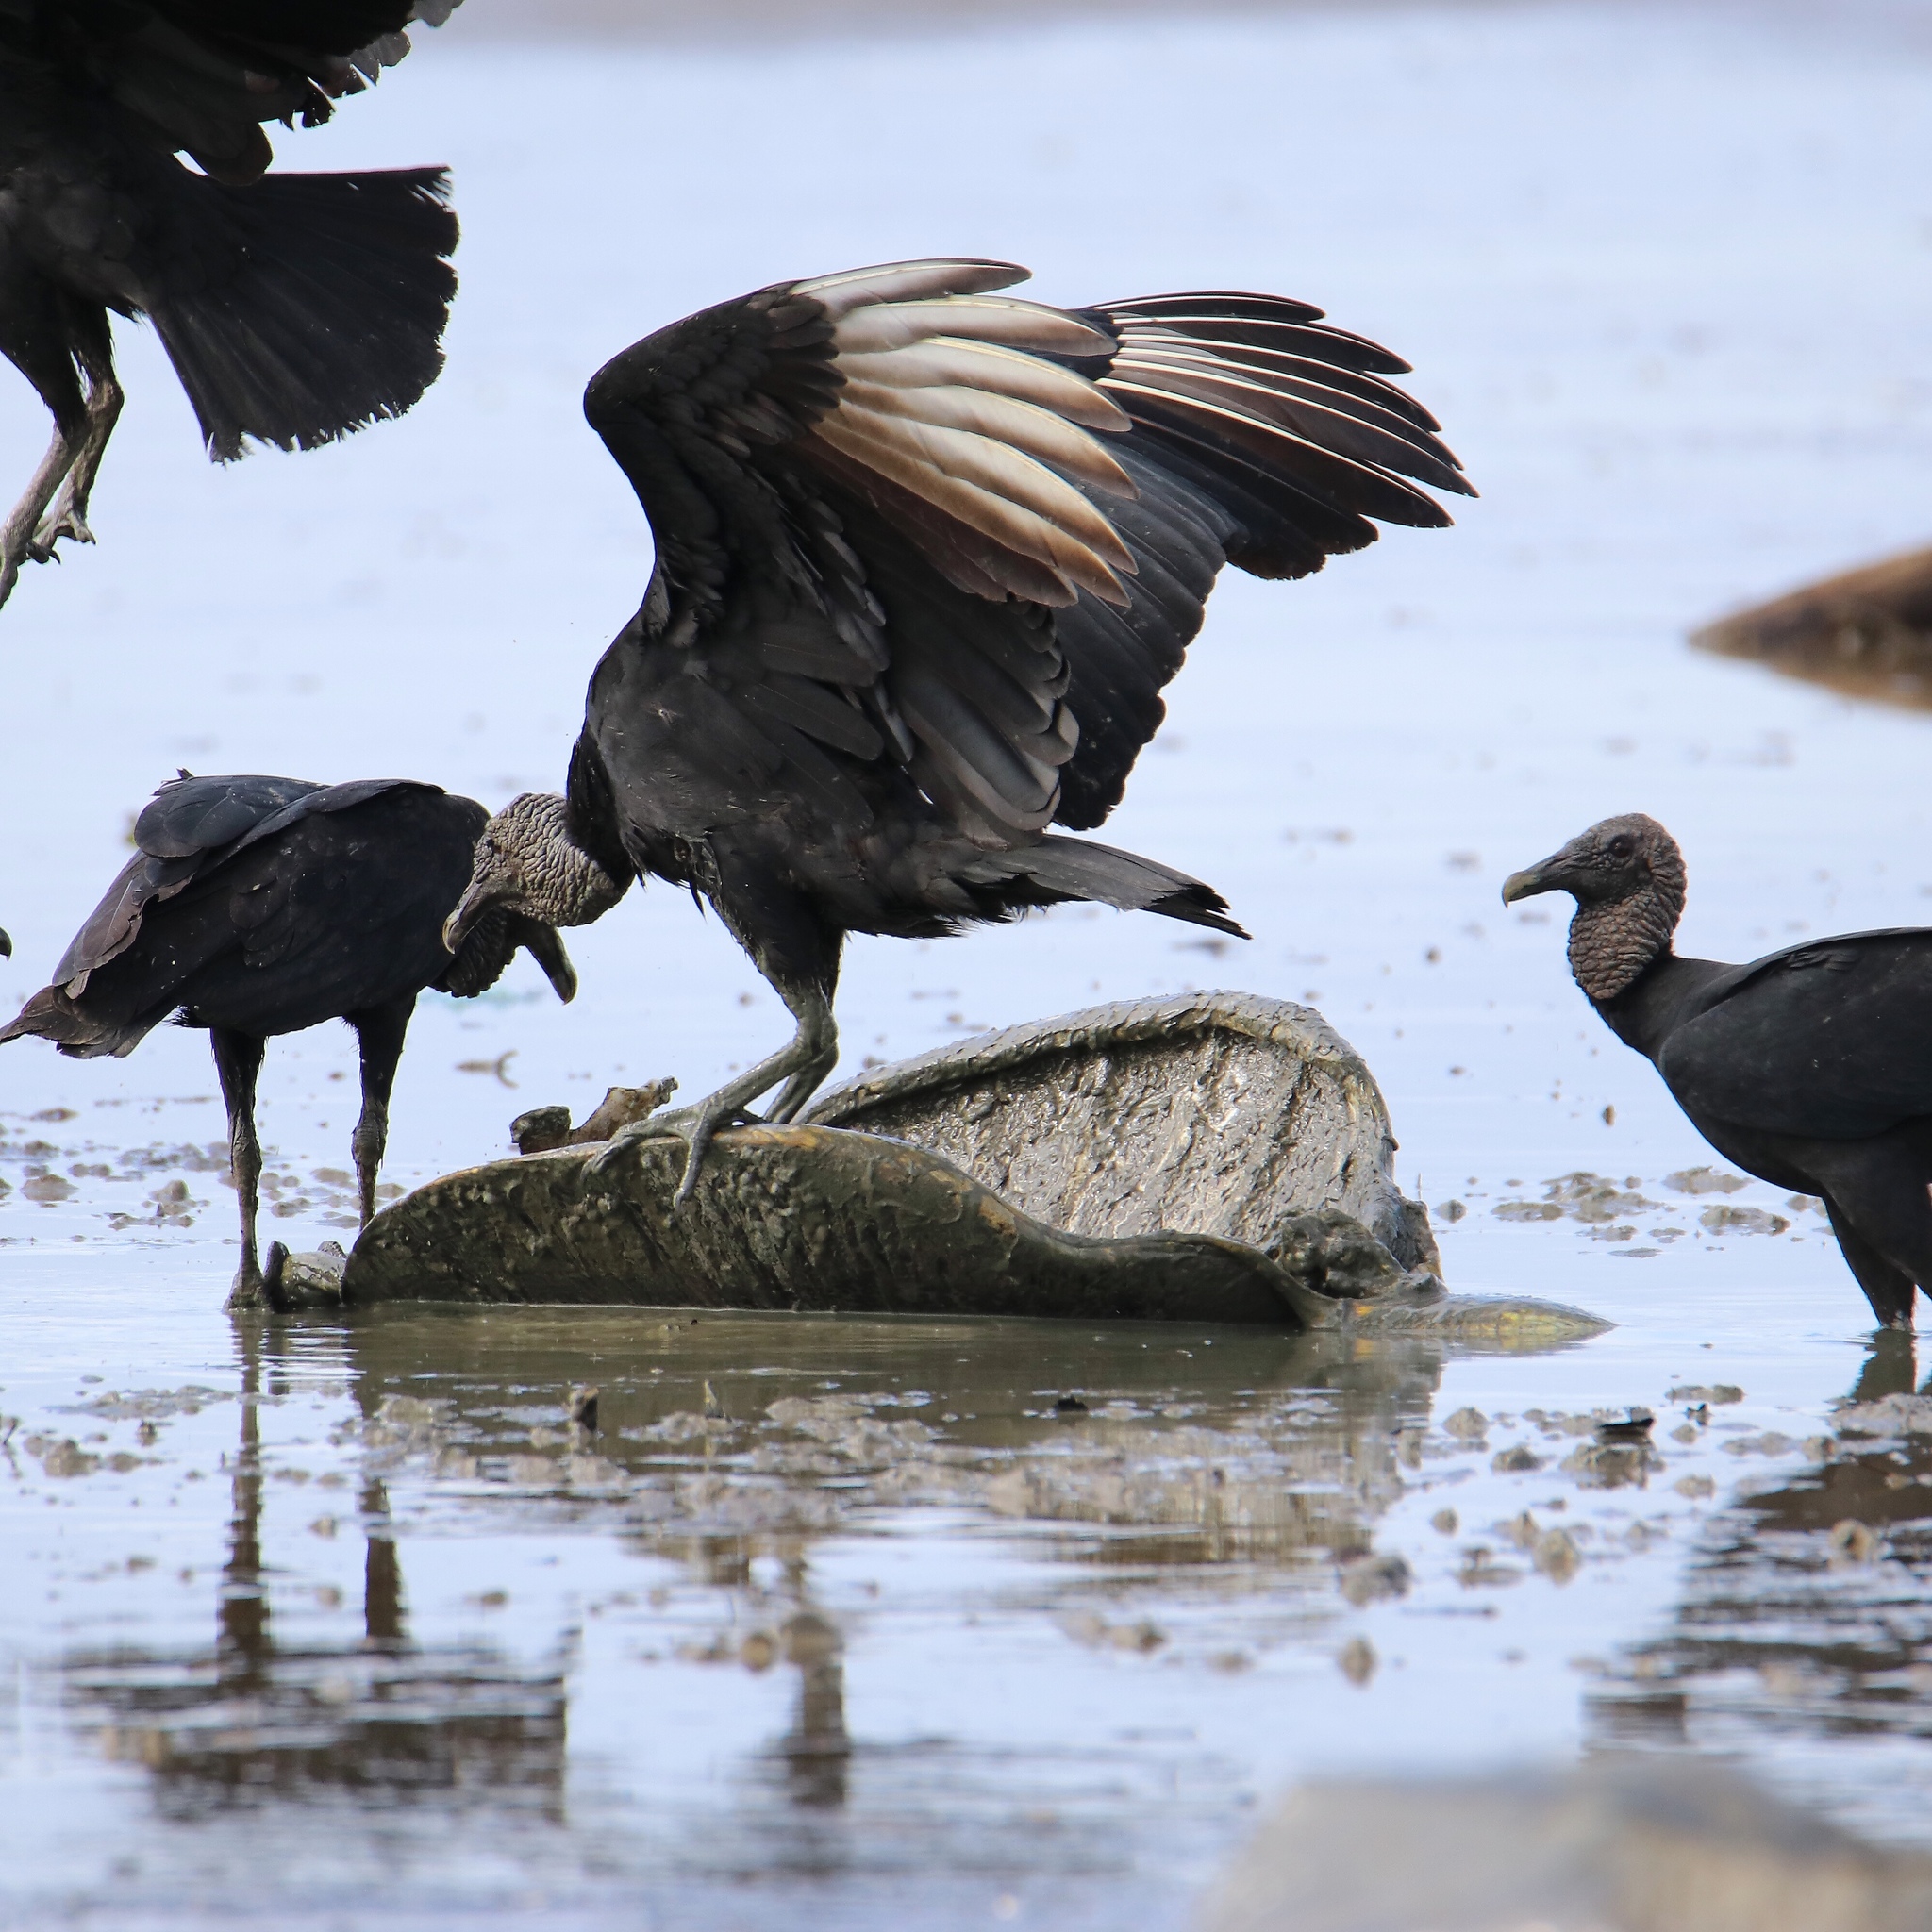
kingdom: Animalia
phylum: Chordata
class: Aves
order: Accipitriformes
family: Cathartidae
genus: Coragyps
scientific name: Coragyps atratus
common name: Black vulture
